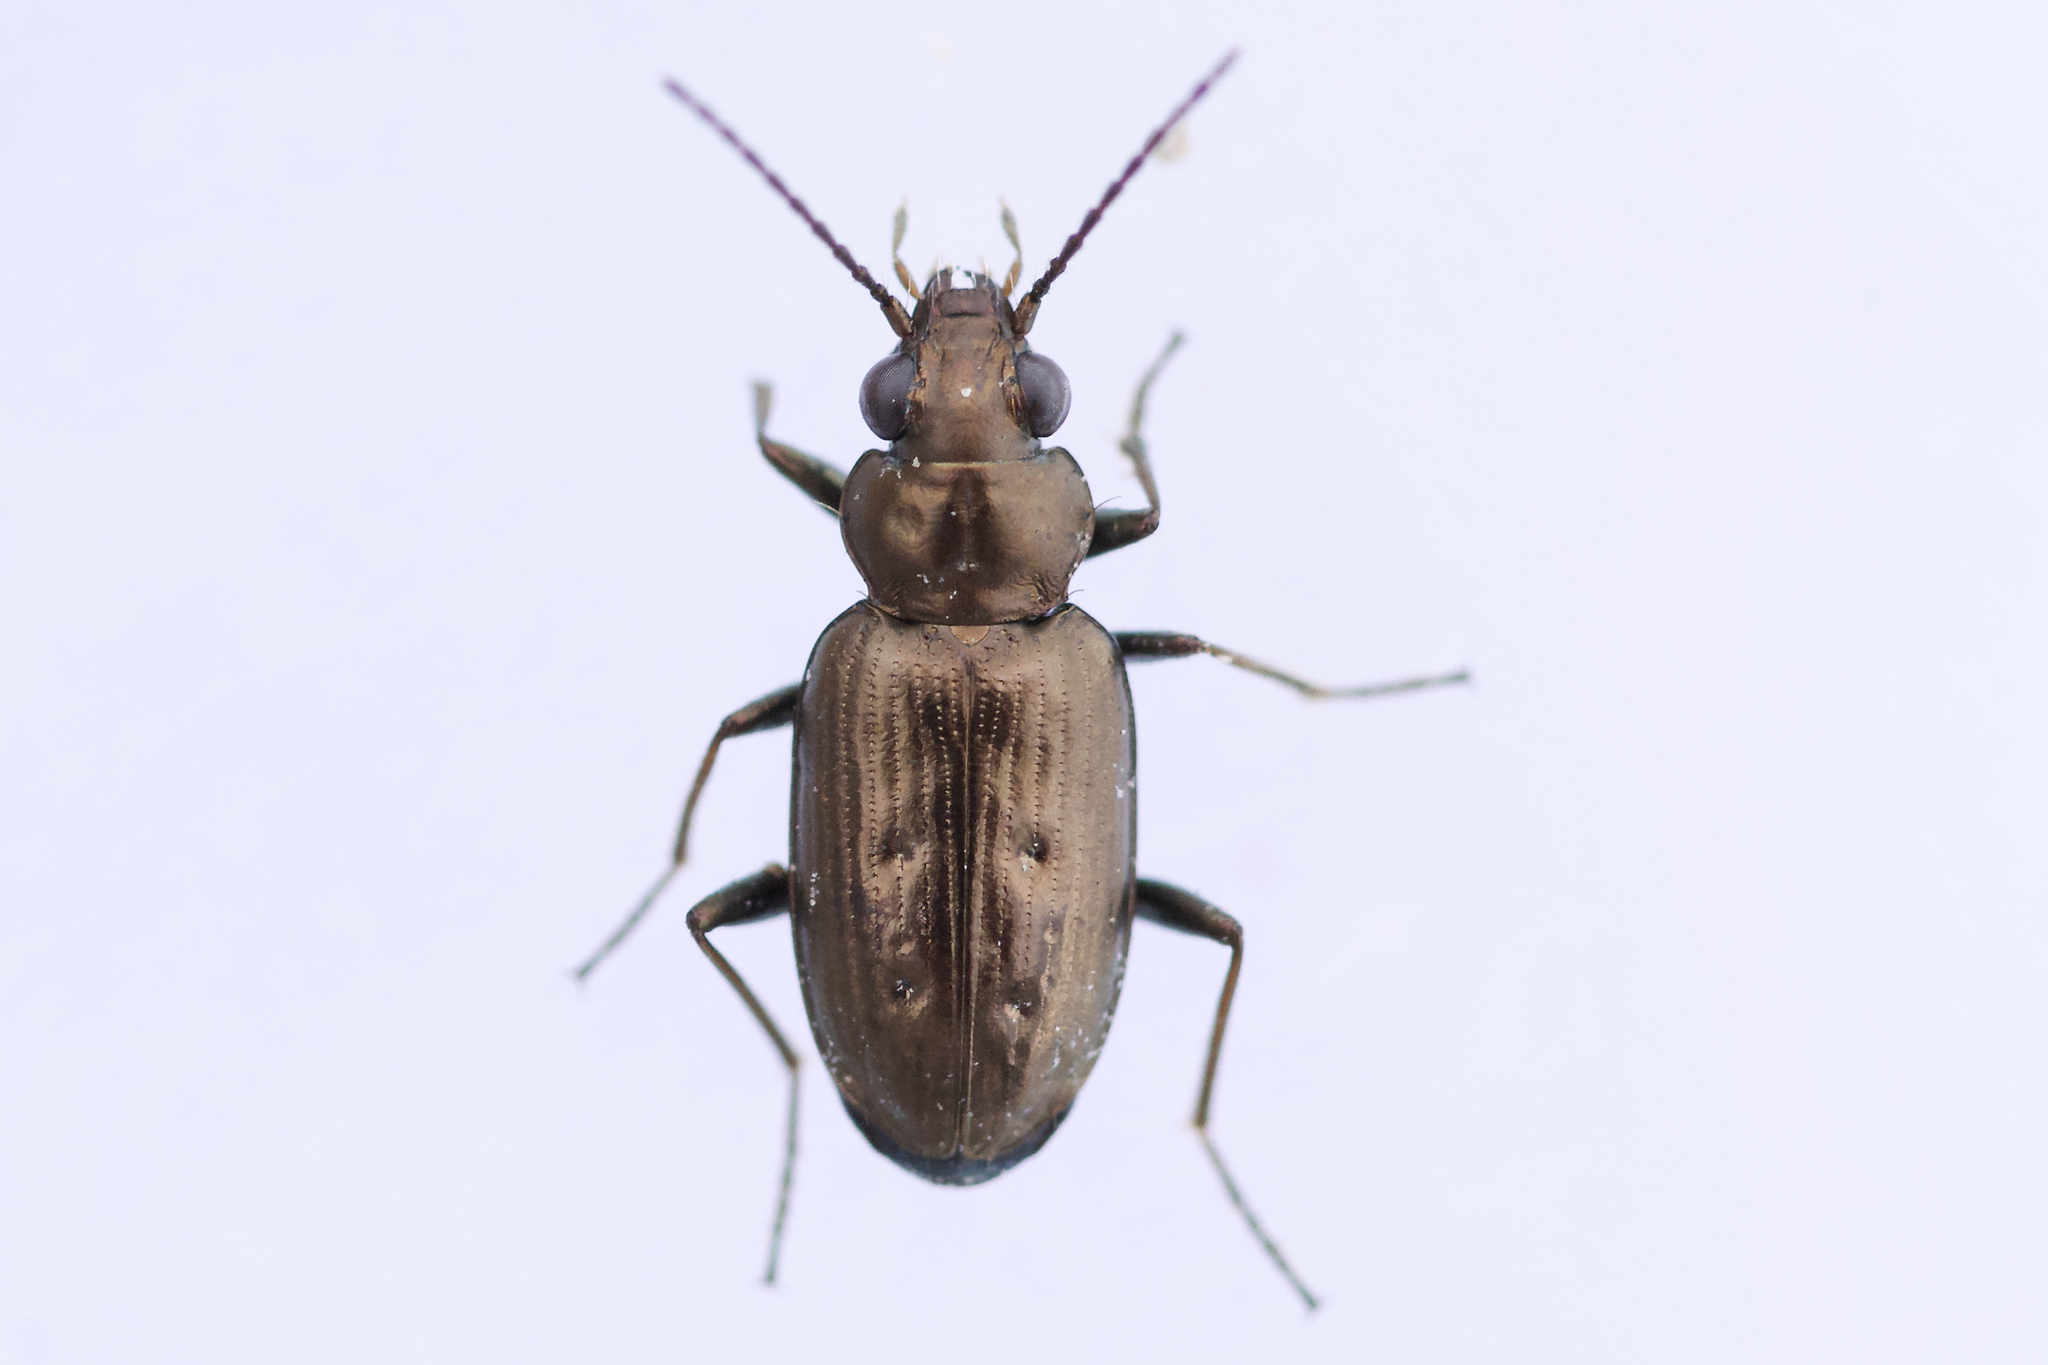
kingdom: Animalia
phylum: Arthropoda
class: Insecta
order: Coleoptera
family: Carabidae
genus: Bembidion
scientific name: Bembidion cheyennense
